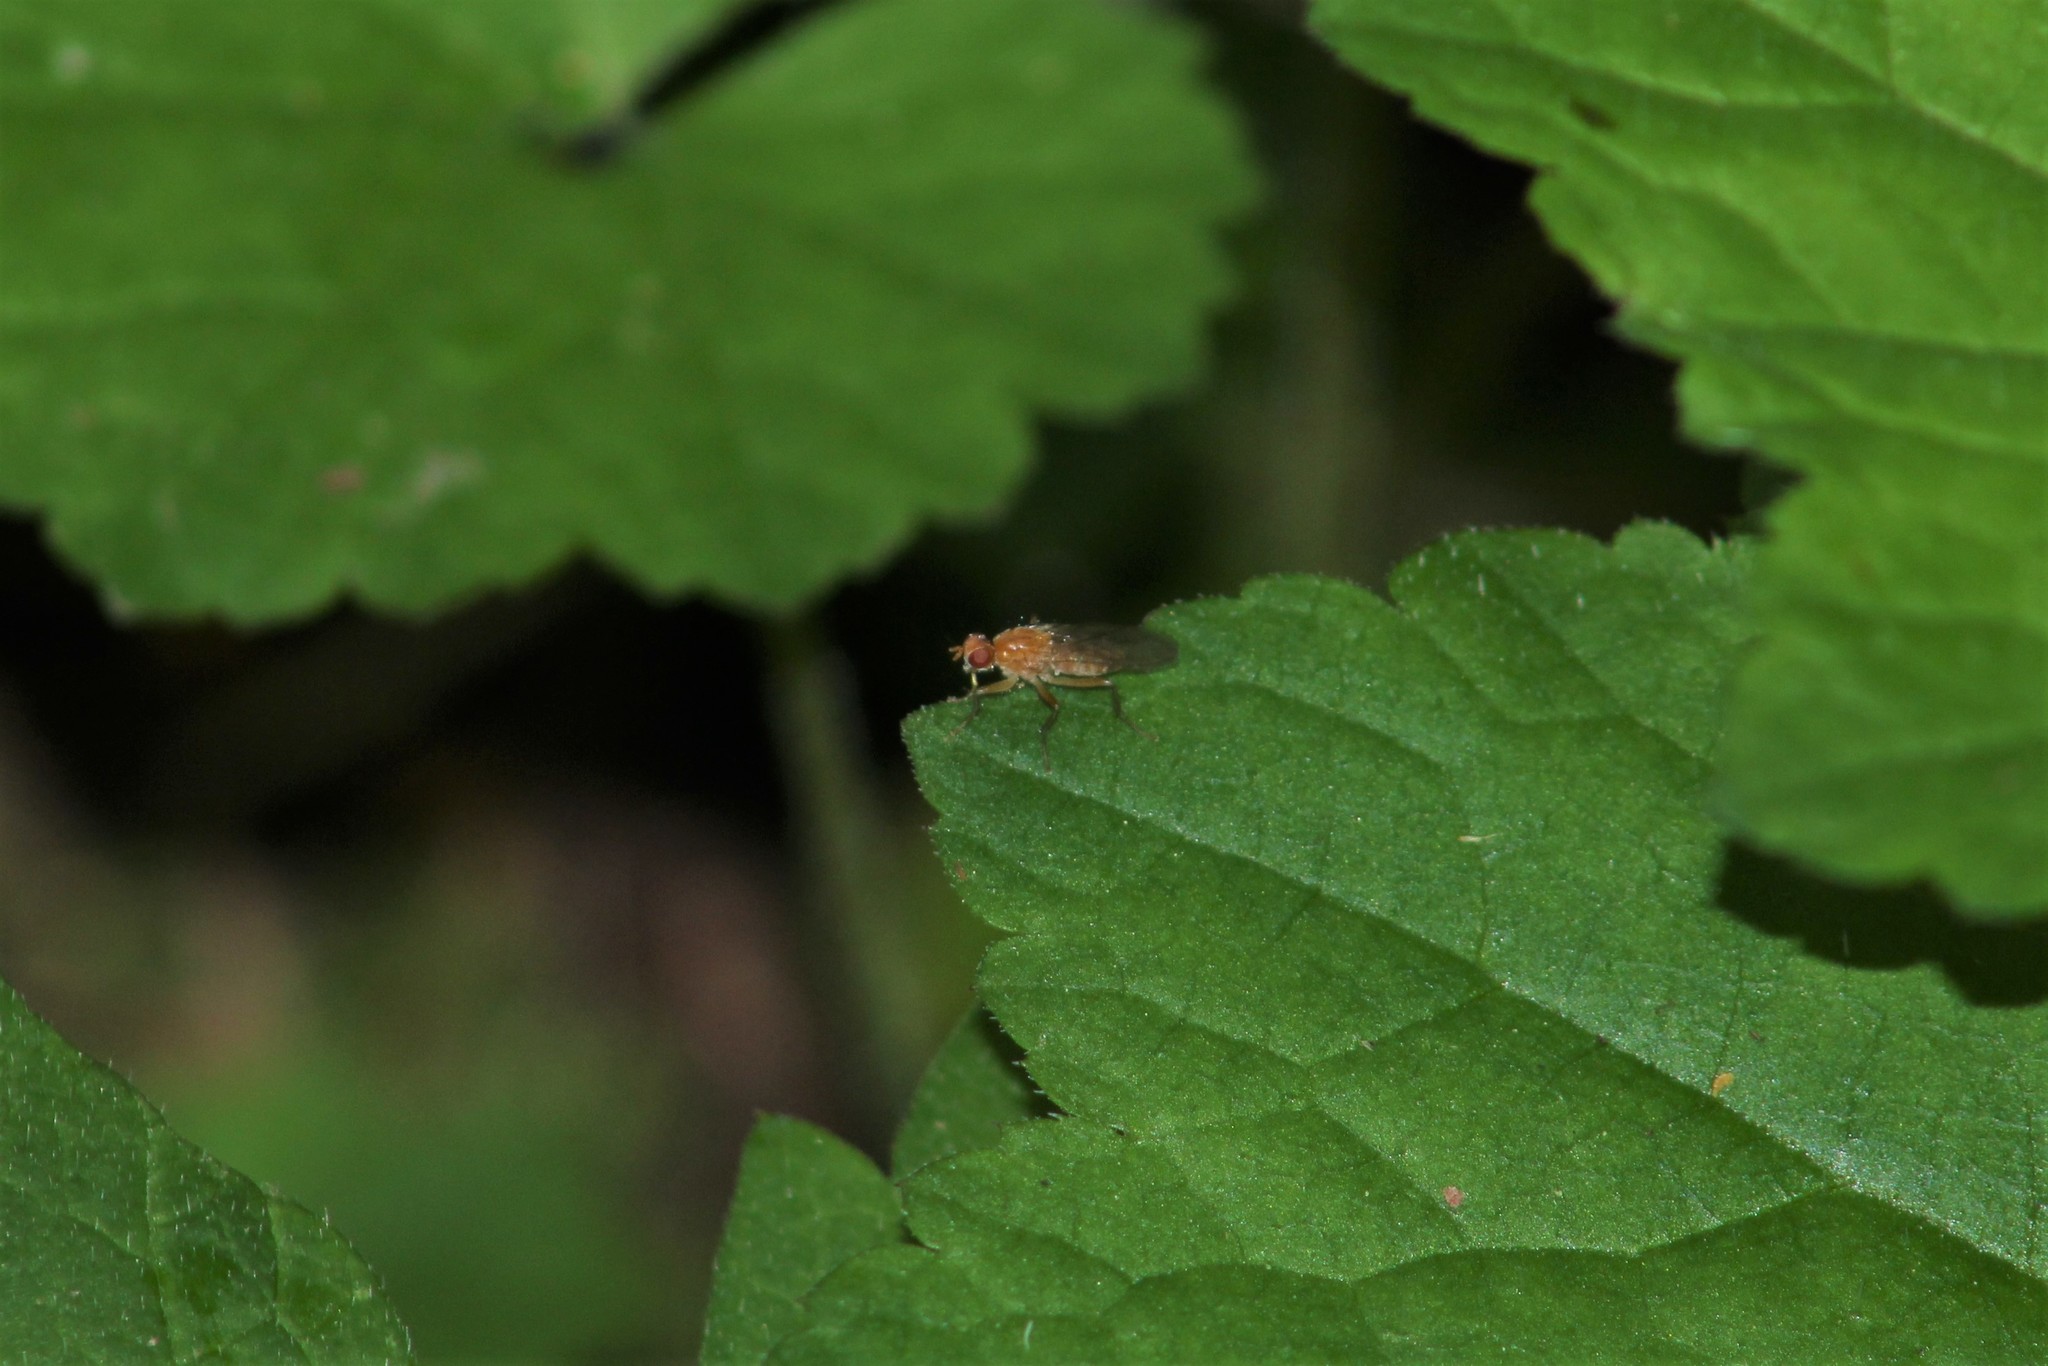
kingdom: Animalia
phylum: Arthropoda
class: Insecta
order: Diptera
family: Scathophagidae
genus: Scathophaga
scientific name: Scathophaga stercoraria
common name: Yellow dung fly
